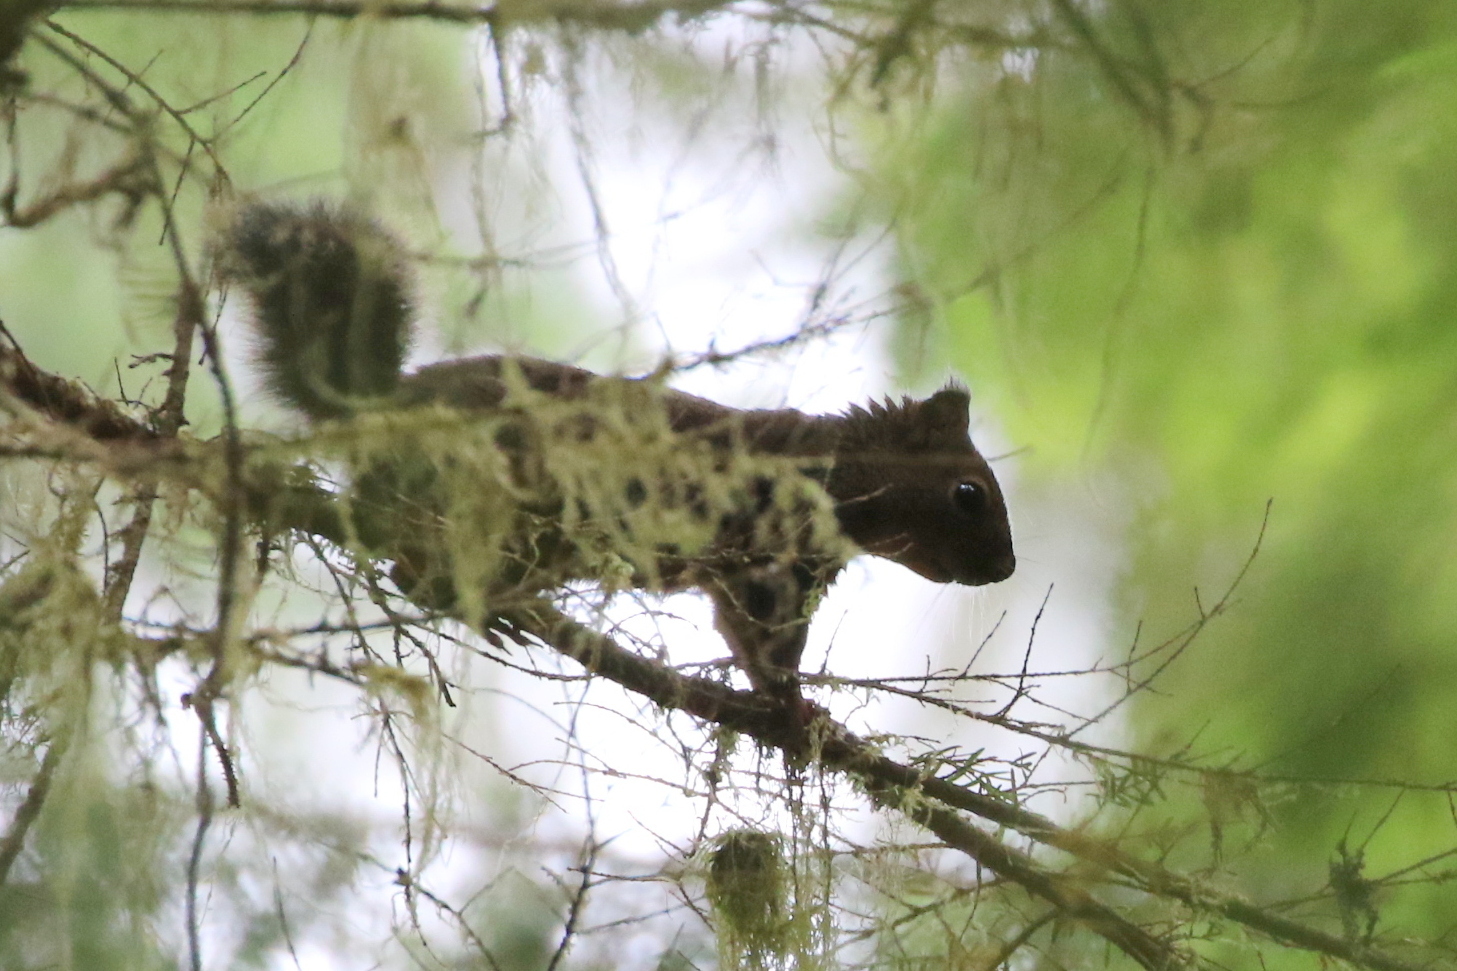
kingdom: Animalia
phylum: Chordata
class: Mammalia
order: Rodentia
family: Sciuridae
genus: Tamiasciurus
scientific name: Tamiasciurus douglasii
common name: Douglas's squirrel
